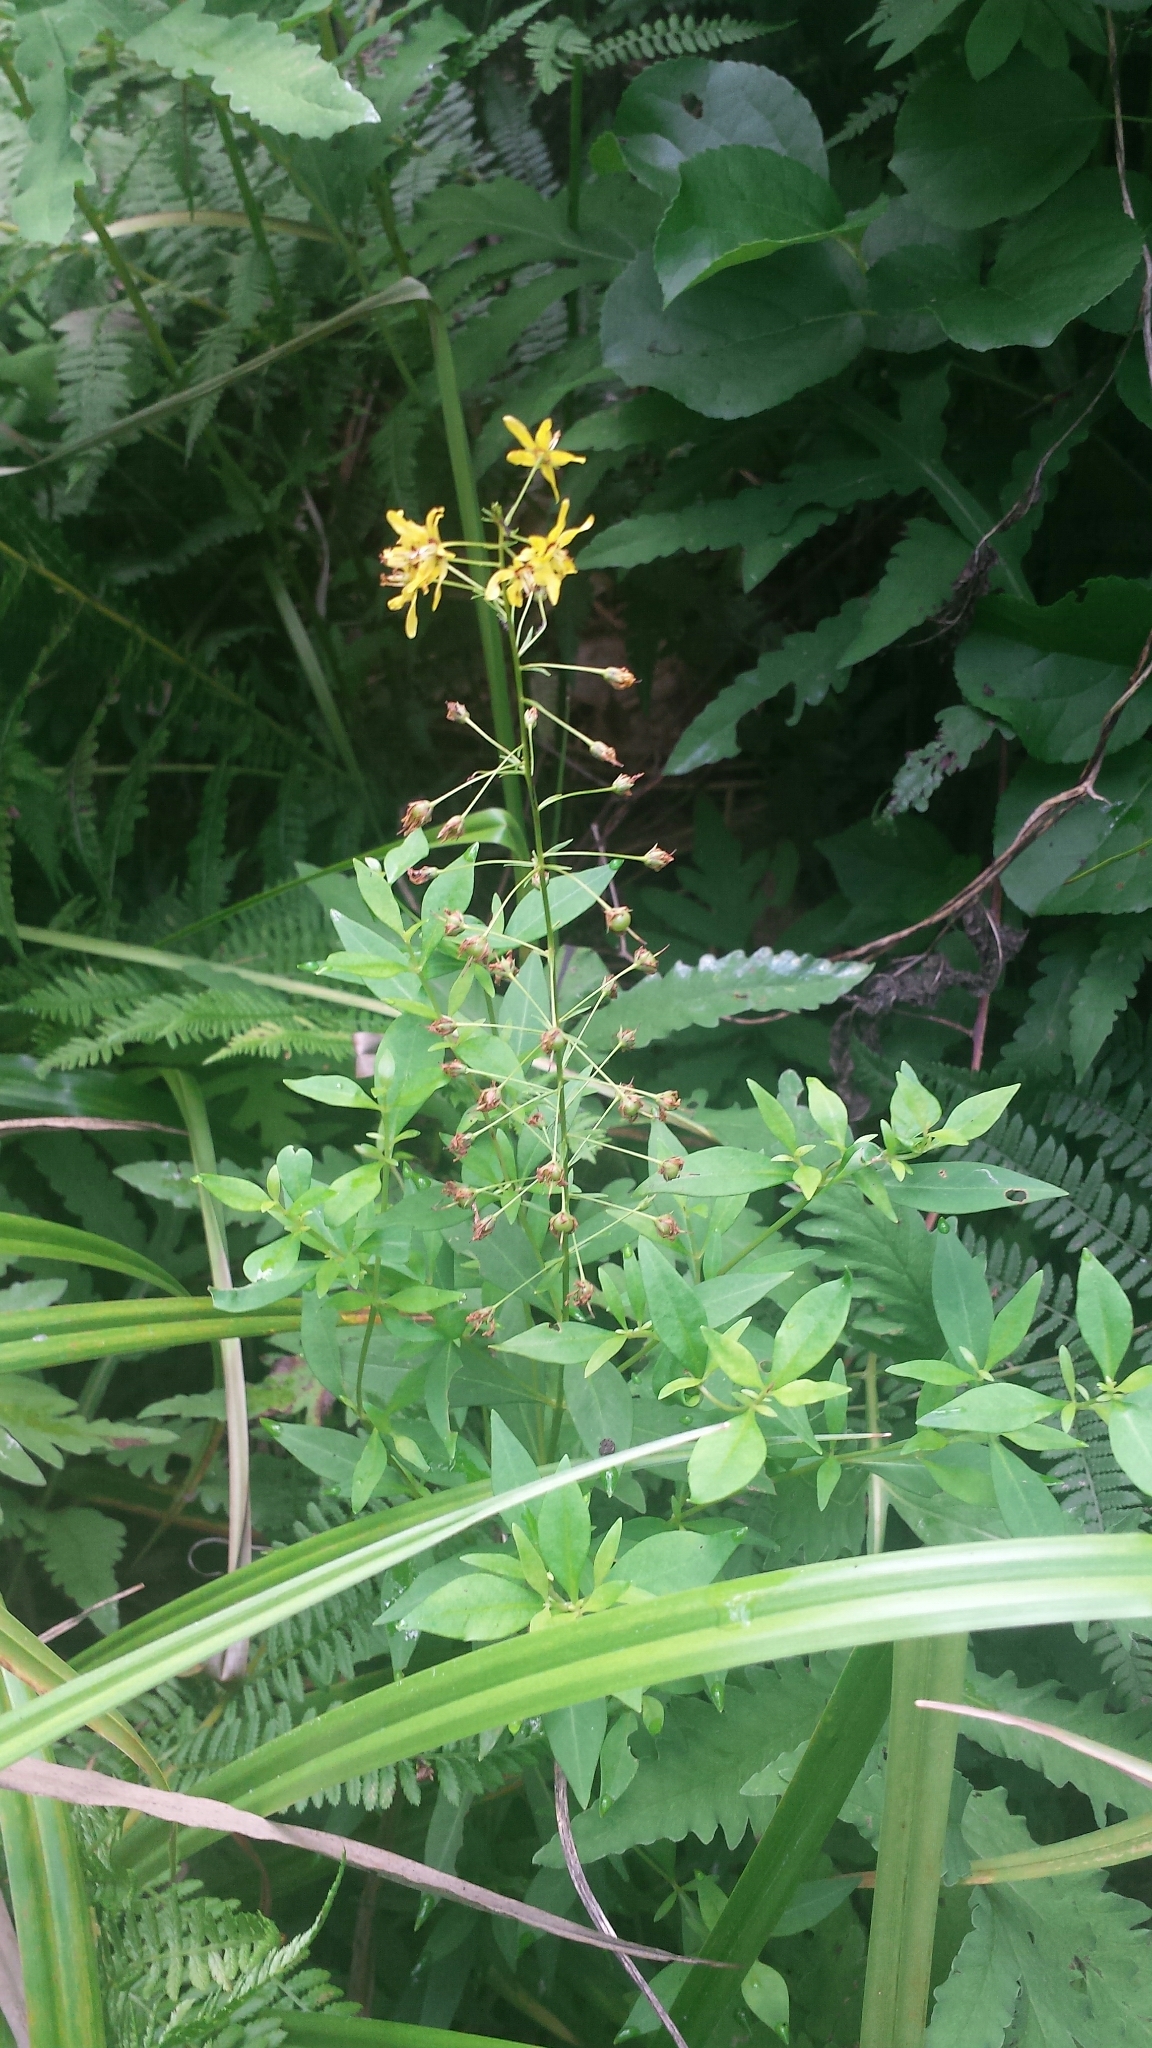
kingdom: Plantae
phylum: Tracheophyta
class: Magnoliopsida
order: Ericales
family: Primulaceae
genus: Lysimachia
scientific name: Lysimachia terrestris
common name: Lake loosestrife
